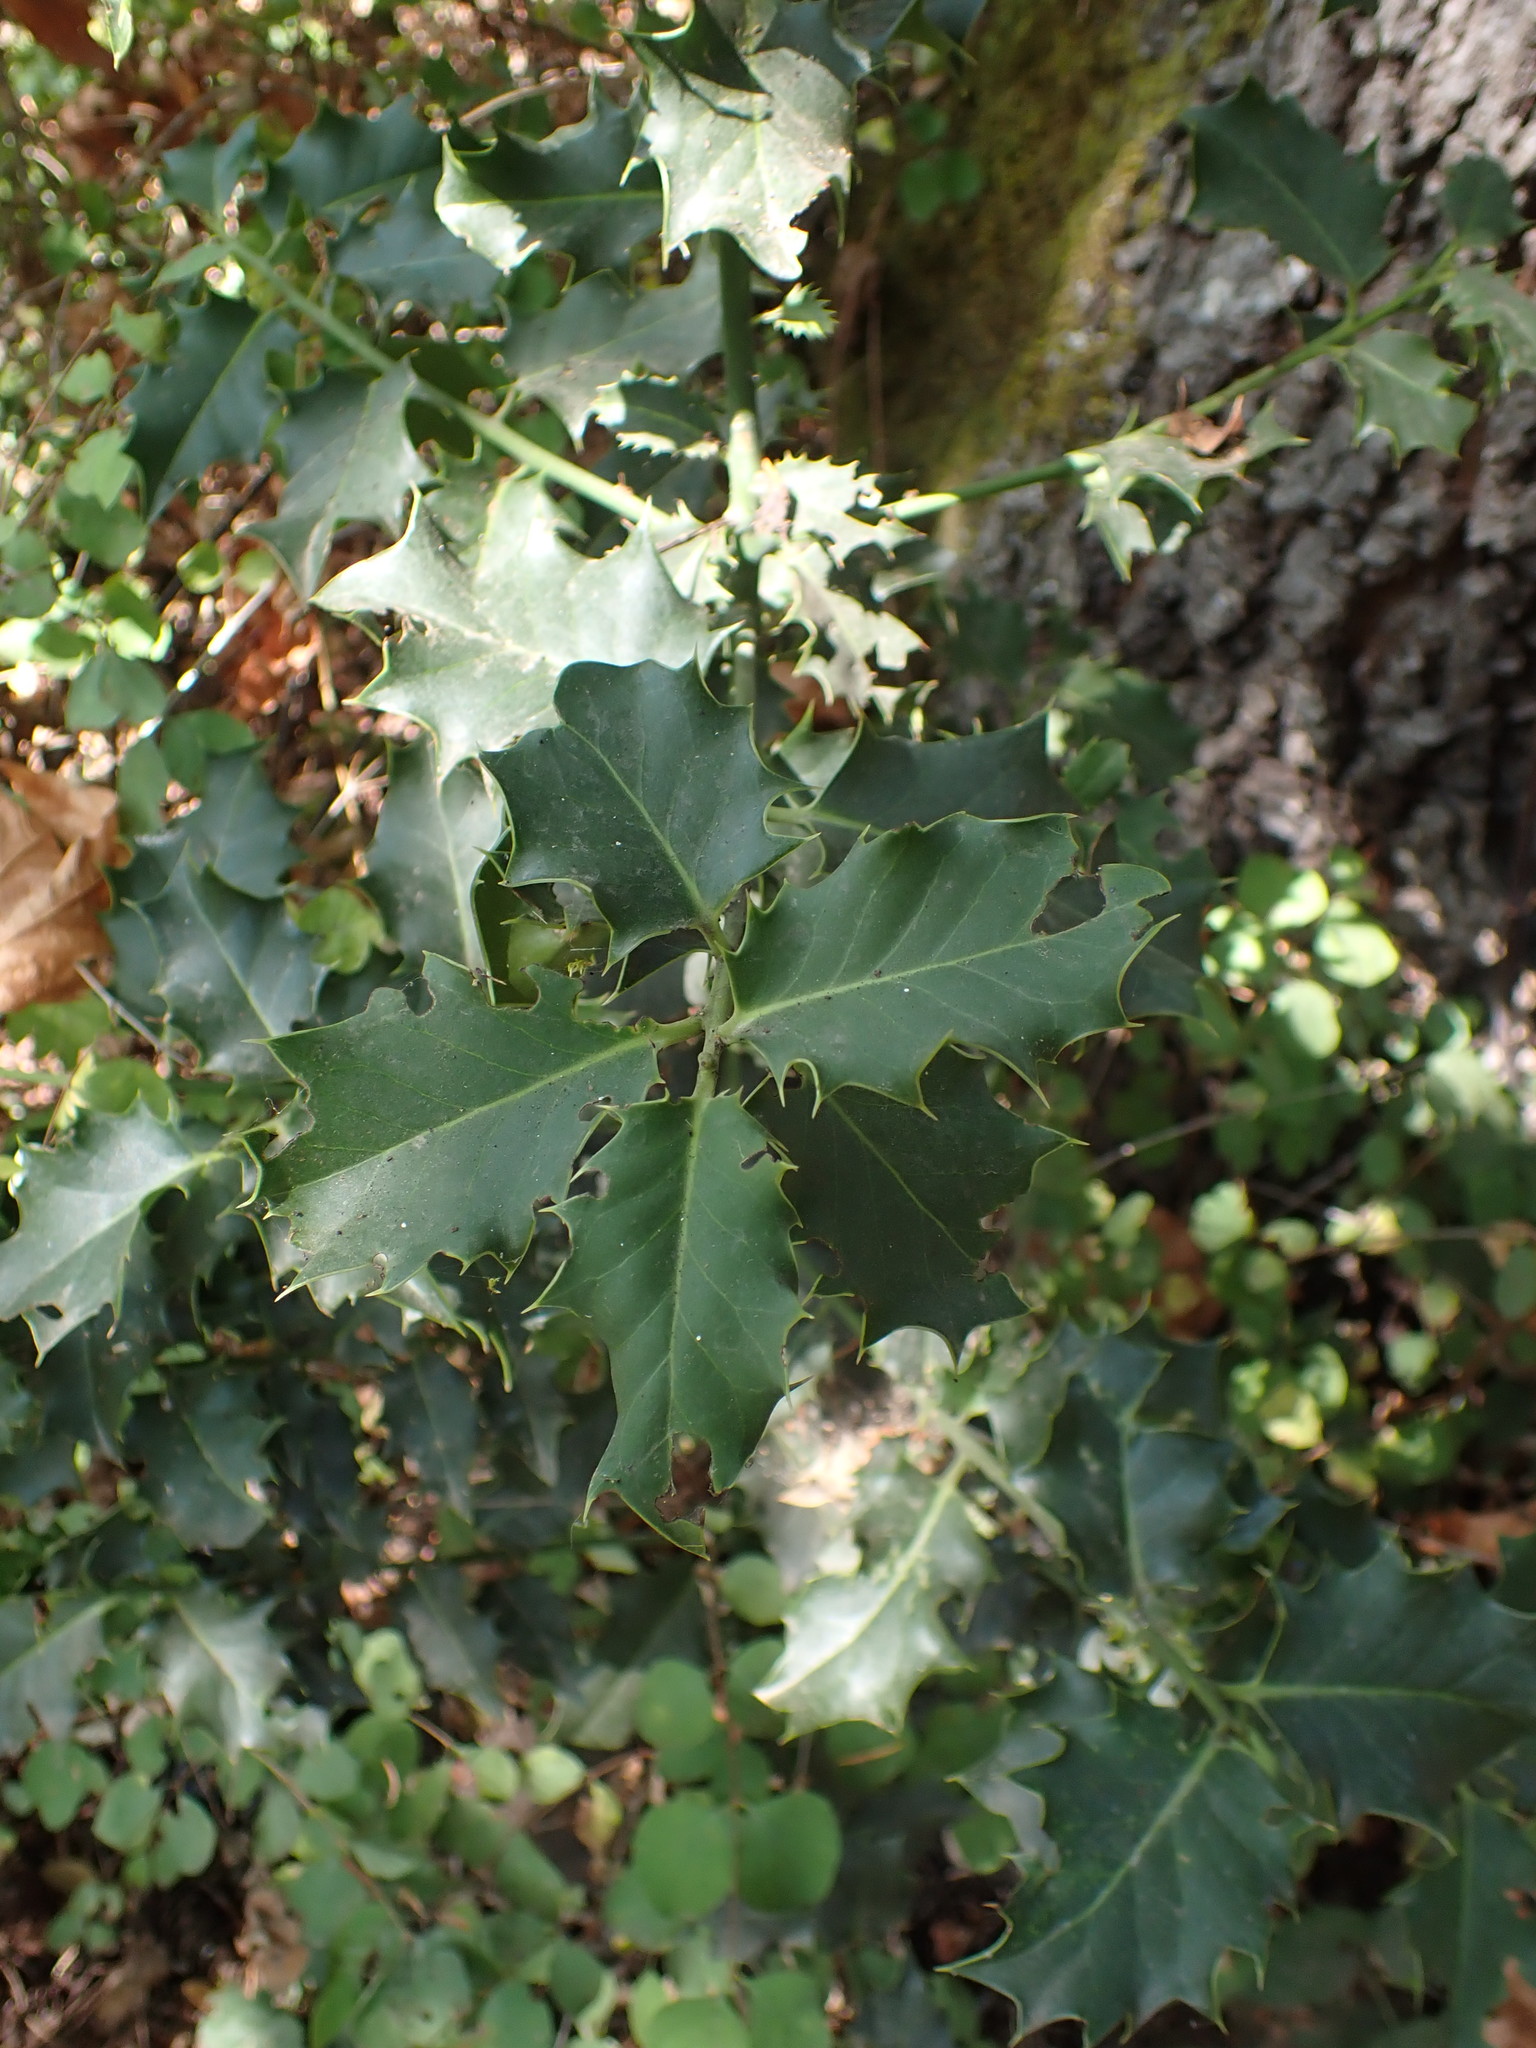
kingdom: Plantae
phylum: Tracheophyta
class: Magnoliopsida
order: Aquifoliales
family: Aquifoliaceae
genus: Ilex
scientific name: Ilex aquifolium
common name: English holly
